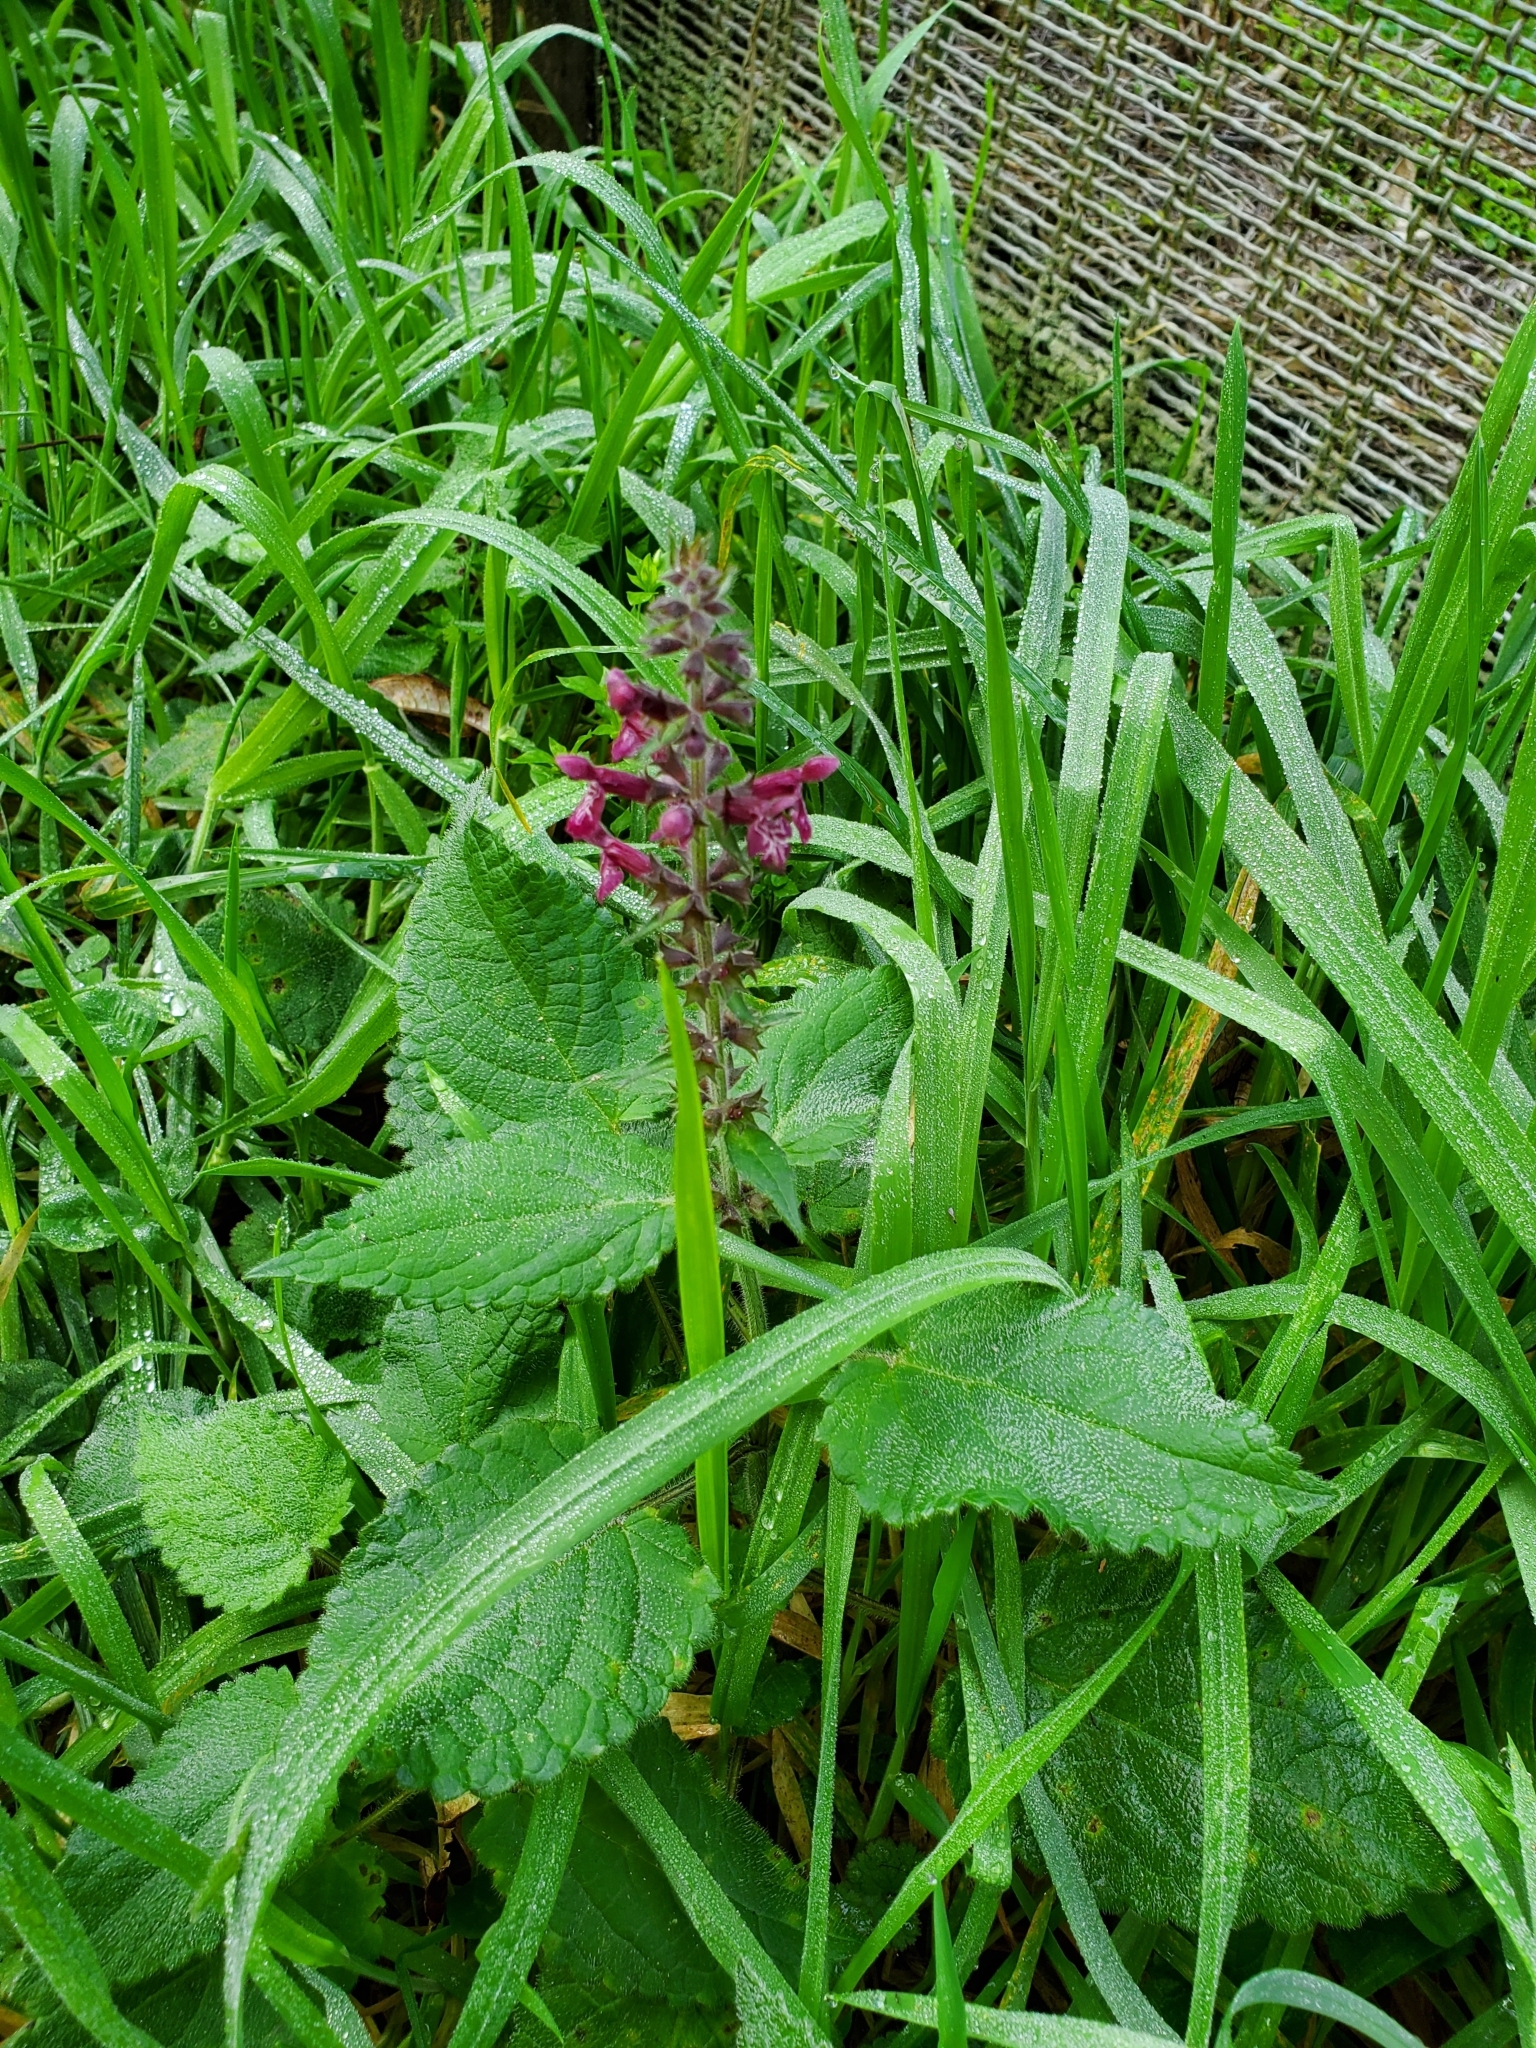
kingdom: Plantae
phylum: Tracheophyta
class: Magnoliopsida
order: Lamiales
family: Lamiaceae
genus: Stachys
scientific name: Stachys sylvatica
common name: Hedge woundwort
